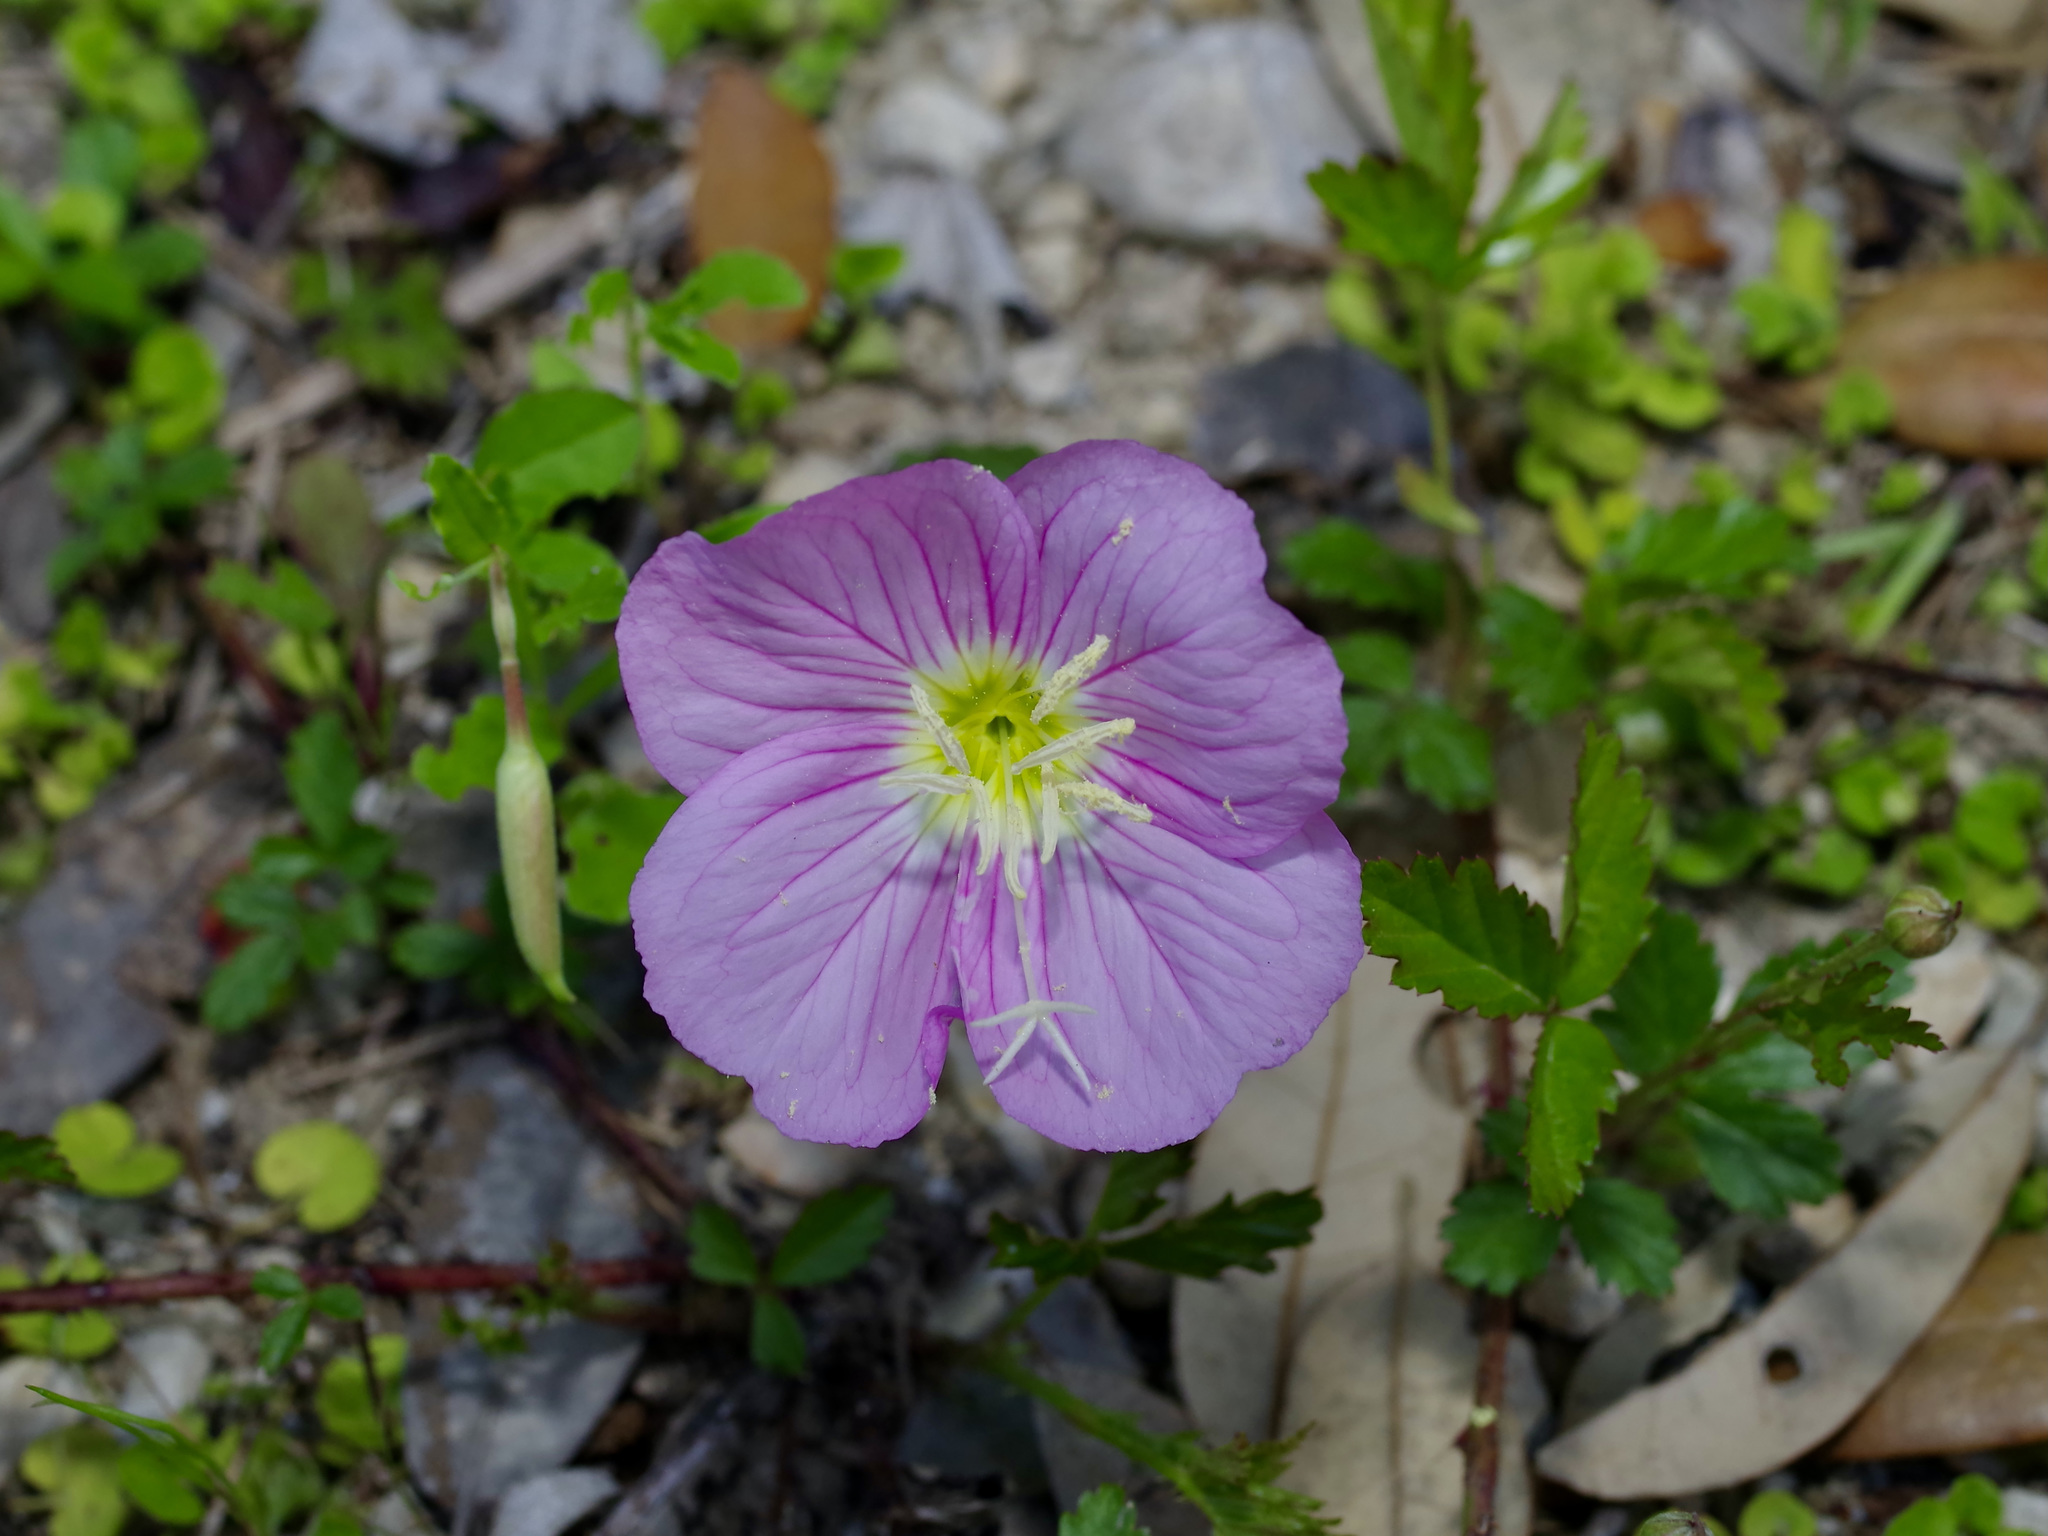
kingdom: Plantae
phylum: Tracheophyta
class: Magnoliopsida
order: Myrtales
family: Onagraceae
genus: Oenothera
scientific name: Oenothera speciosa
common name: White evening-primrose
